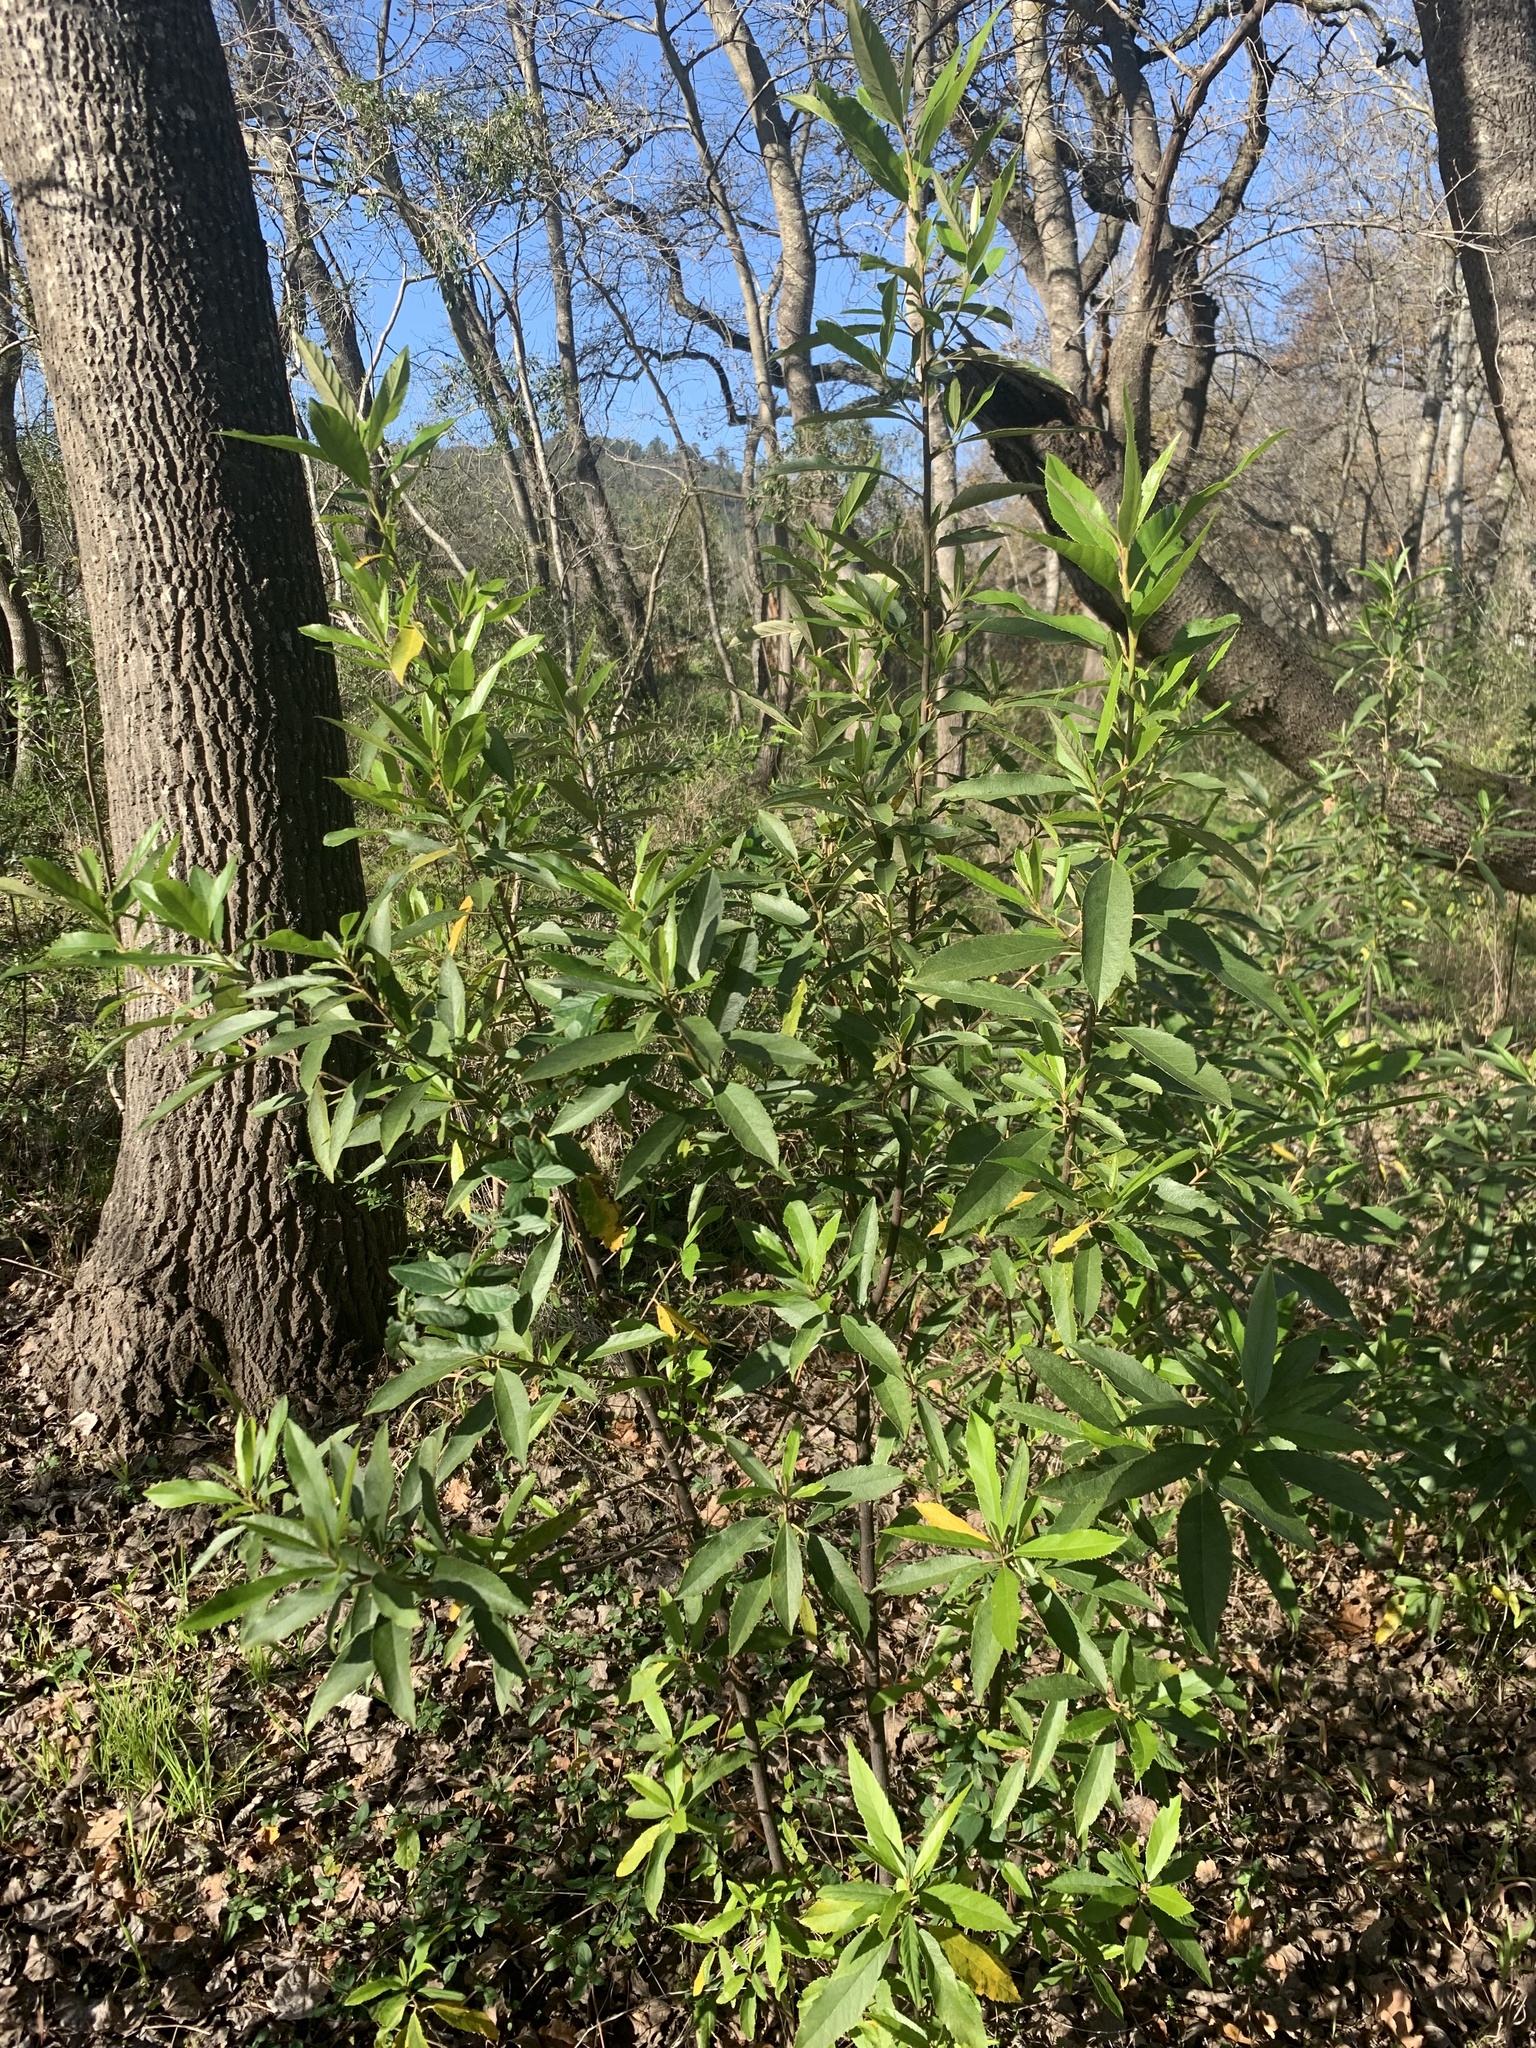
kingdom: Plantae
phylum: Tracheophyta
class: Magnoliopsida
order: Malpighiales
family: Achariaceae
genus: Kiggelaria
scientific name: Kiggelaria africana
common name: Wild peach
